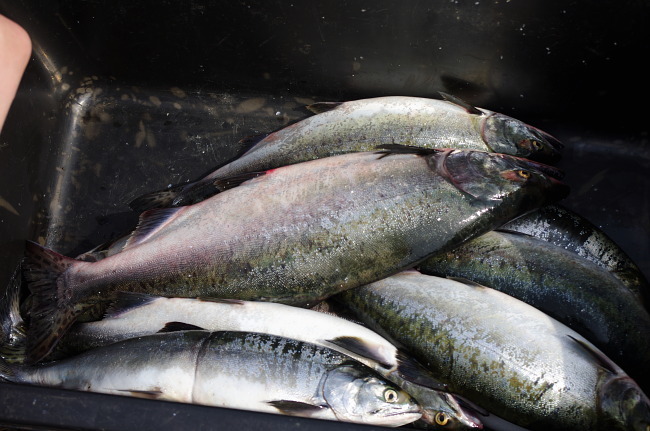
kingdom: Animalia
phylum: Chordata
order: Salmoniformes
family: Salmonidae
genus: Oncorhynchus
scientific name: Oncorhynchus gorbuscha
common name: Humpback salmon
